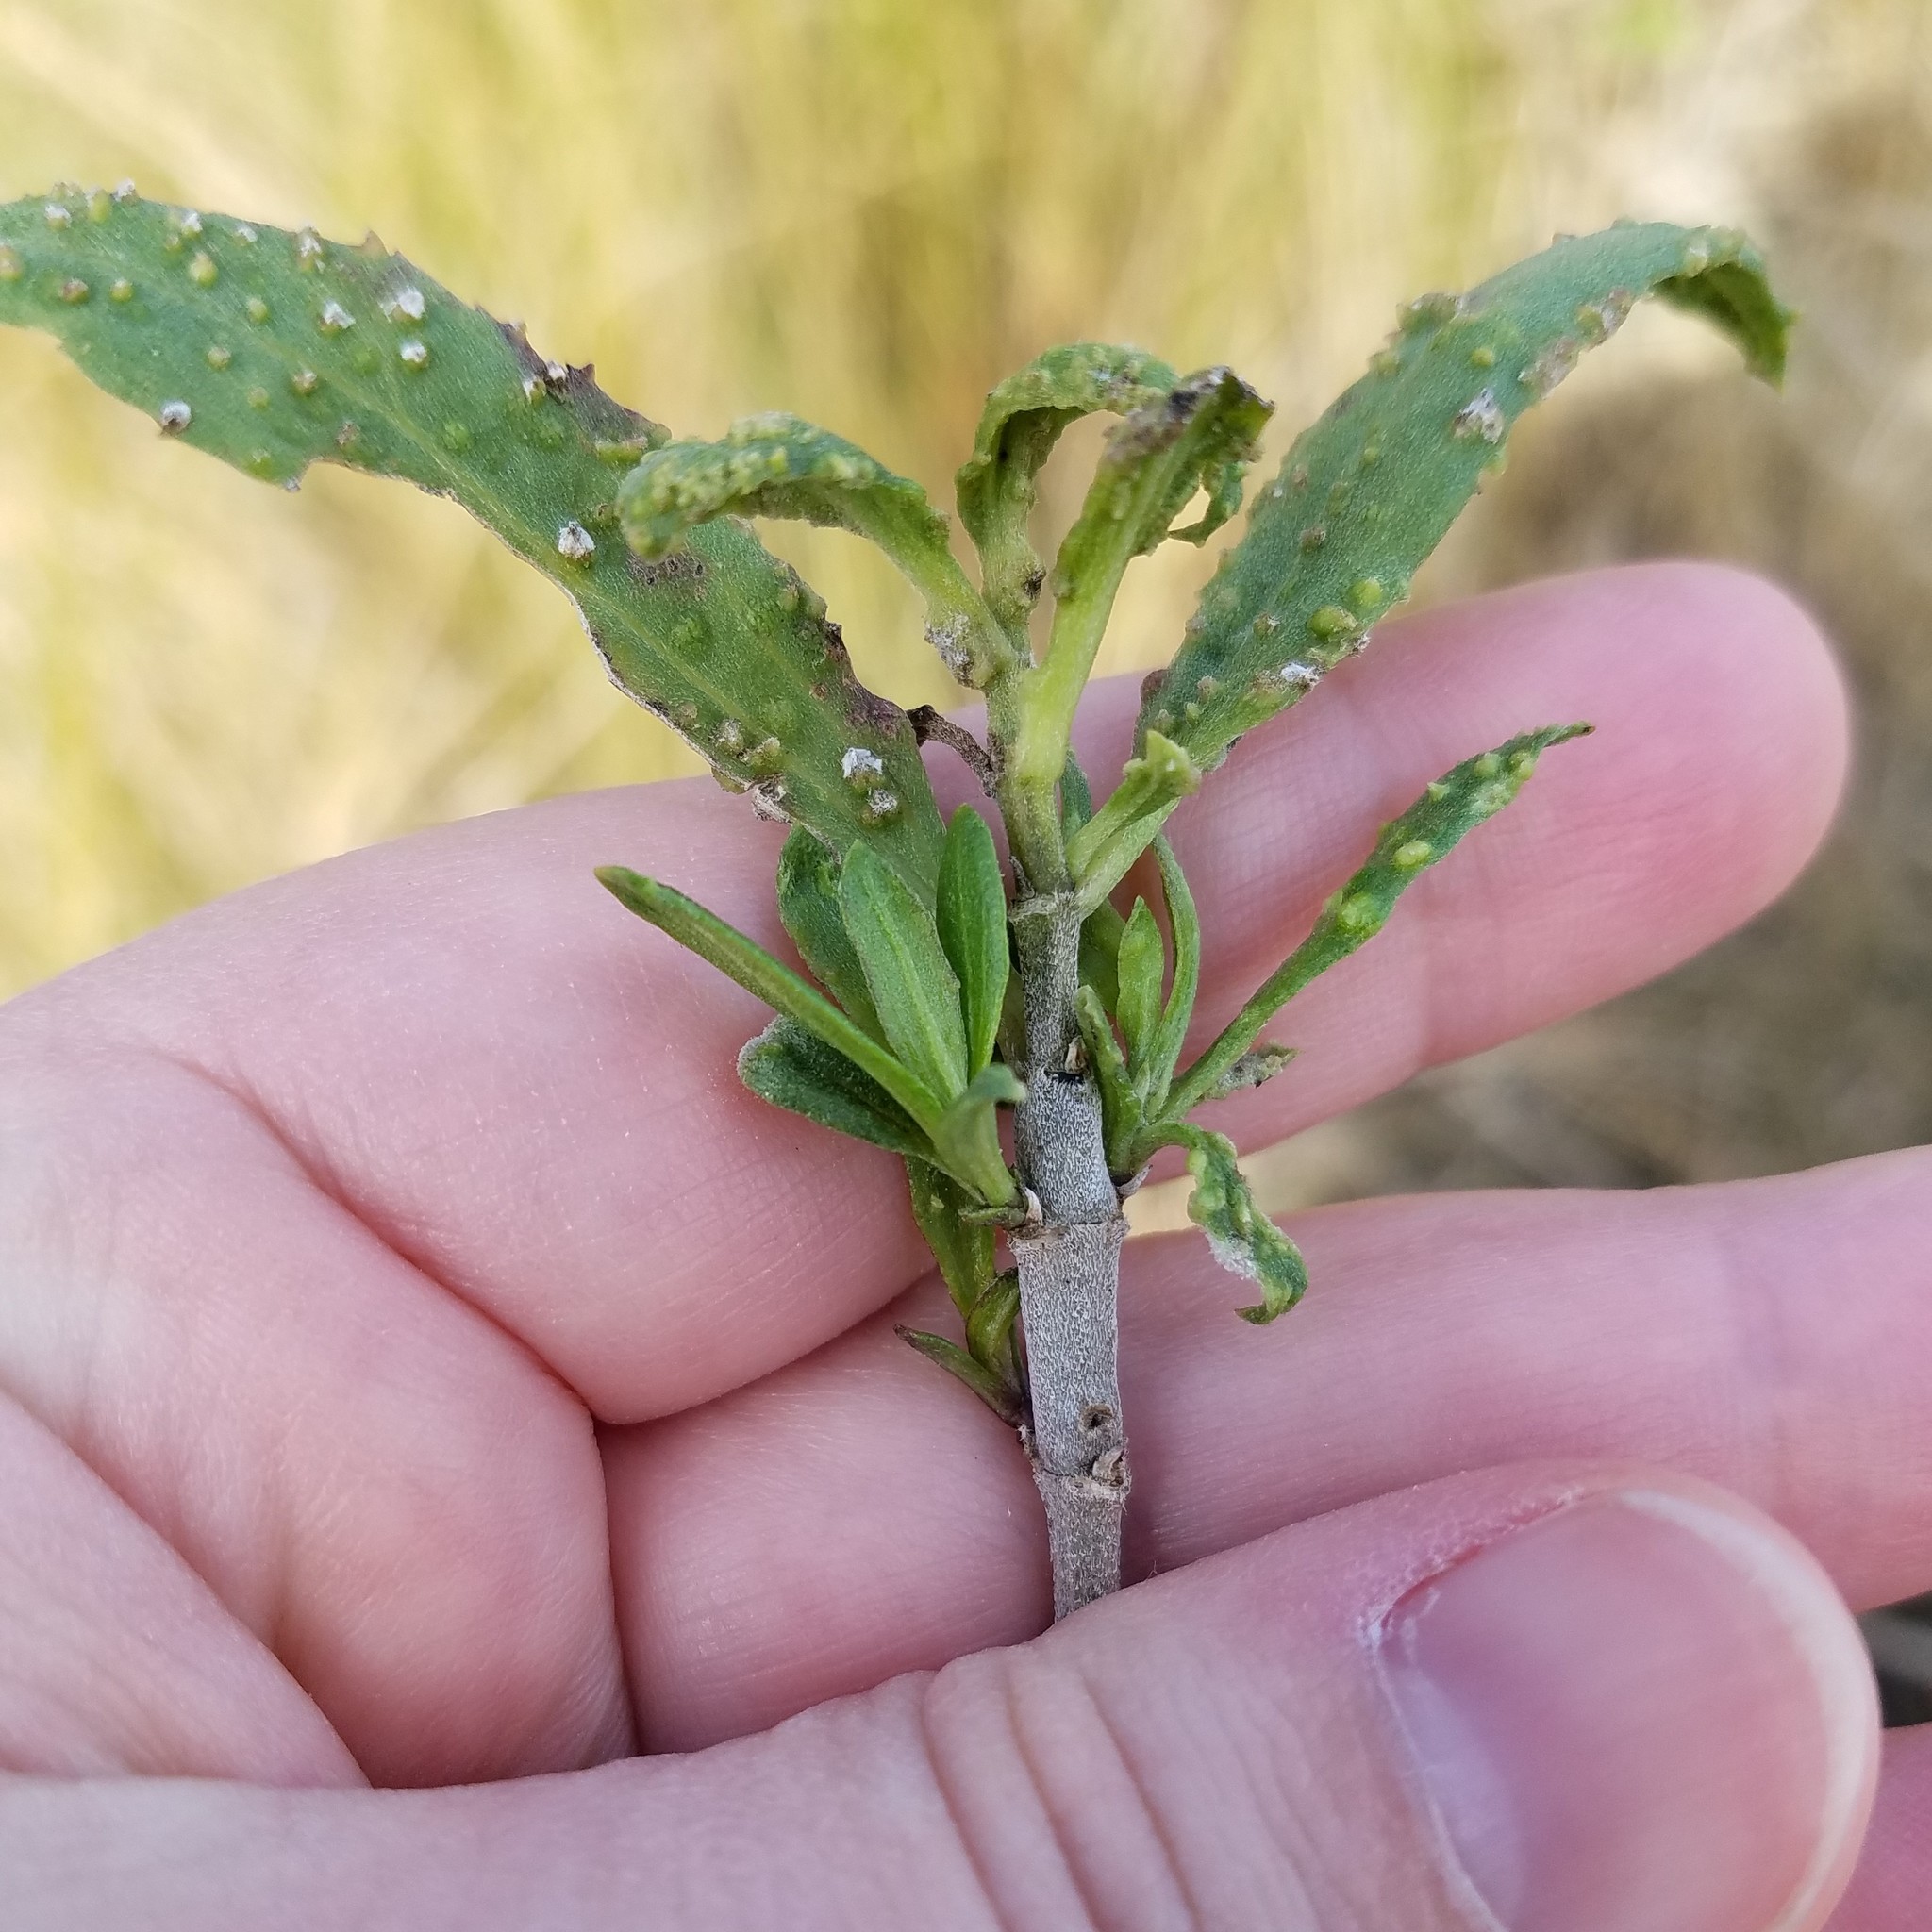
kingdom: Plantae
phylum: Tracheophyta
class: Magnoliopsida
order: Asterales
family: Asteraceae
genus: Iva
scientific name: Iva frutescens
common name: Big-leaved marsh-elder
